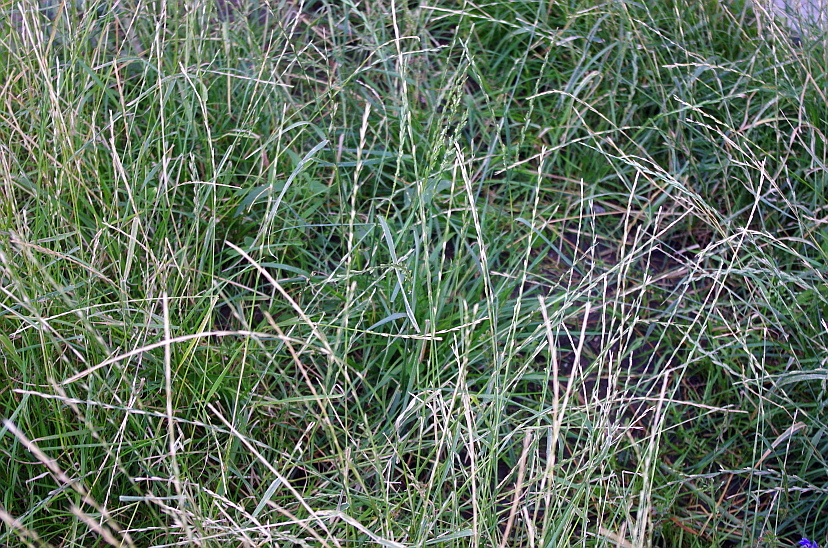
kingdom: Plantae
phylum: Tracheophyta
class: Liliopsida
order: Poales
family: Poaceae
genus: Lolium
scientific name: Lolium perenne
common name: Perennial ryegrass
